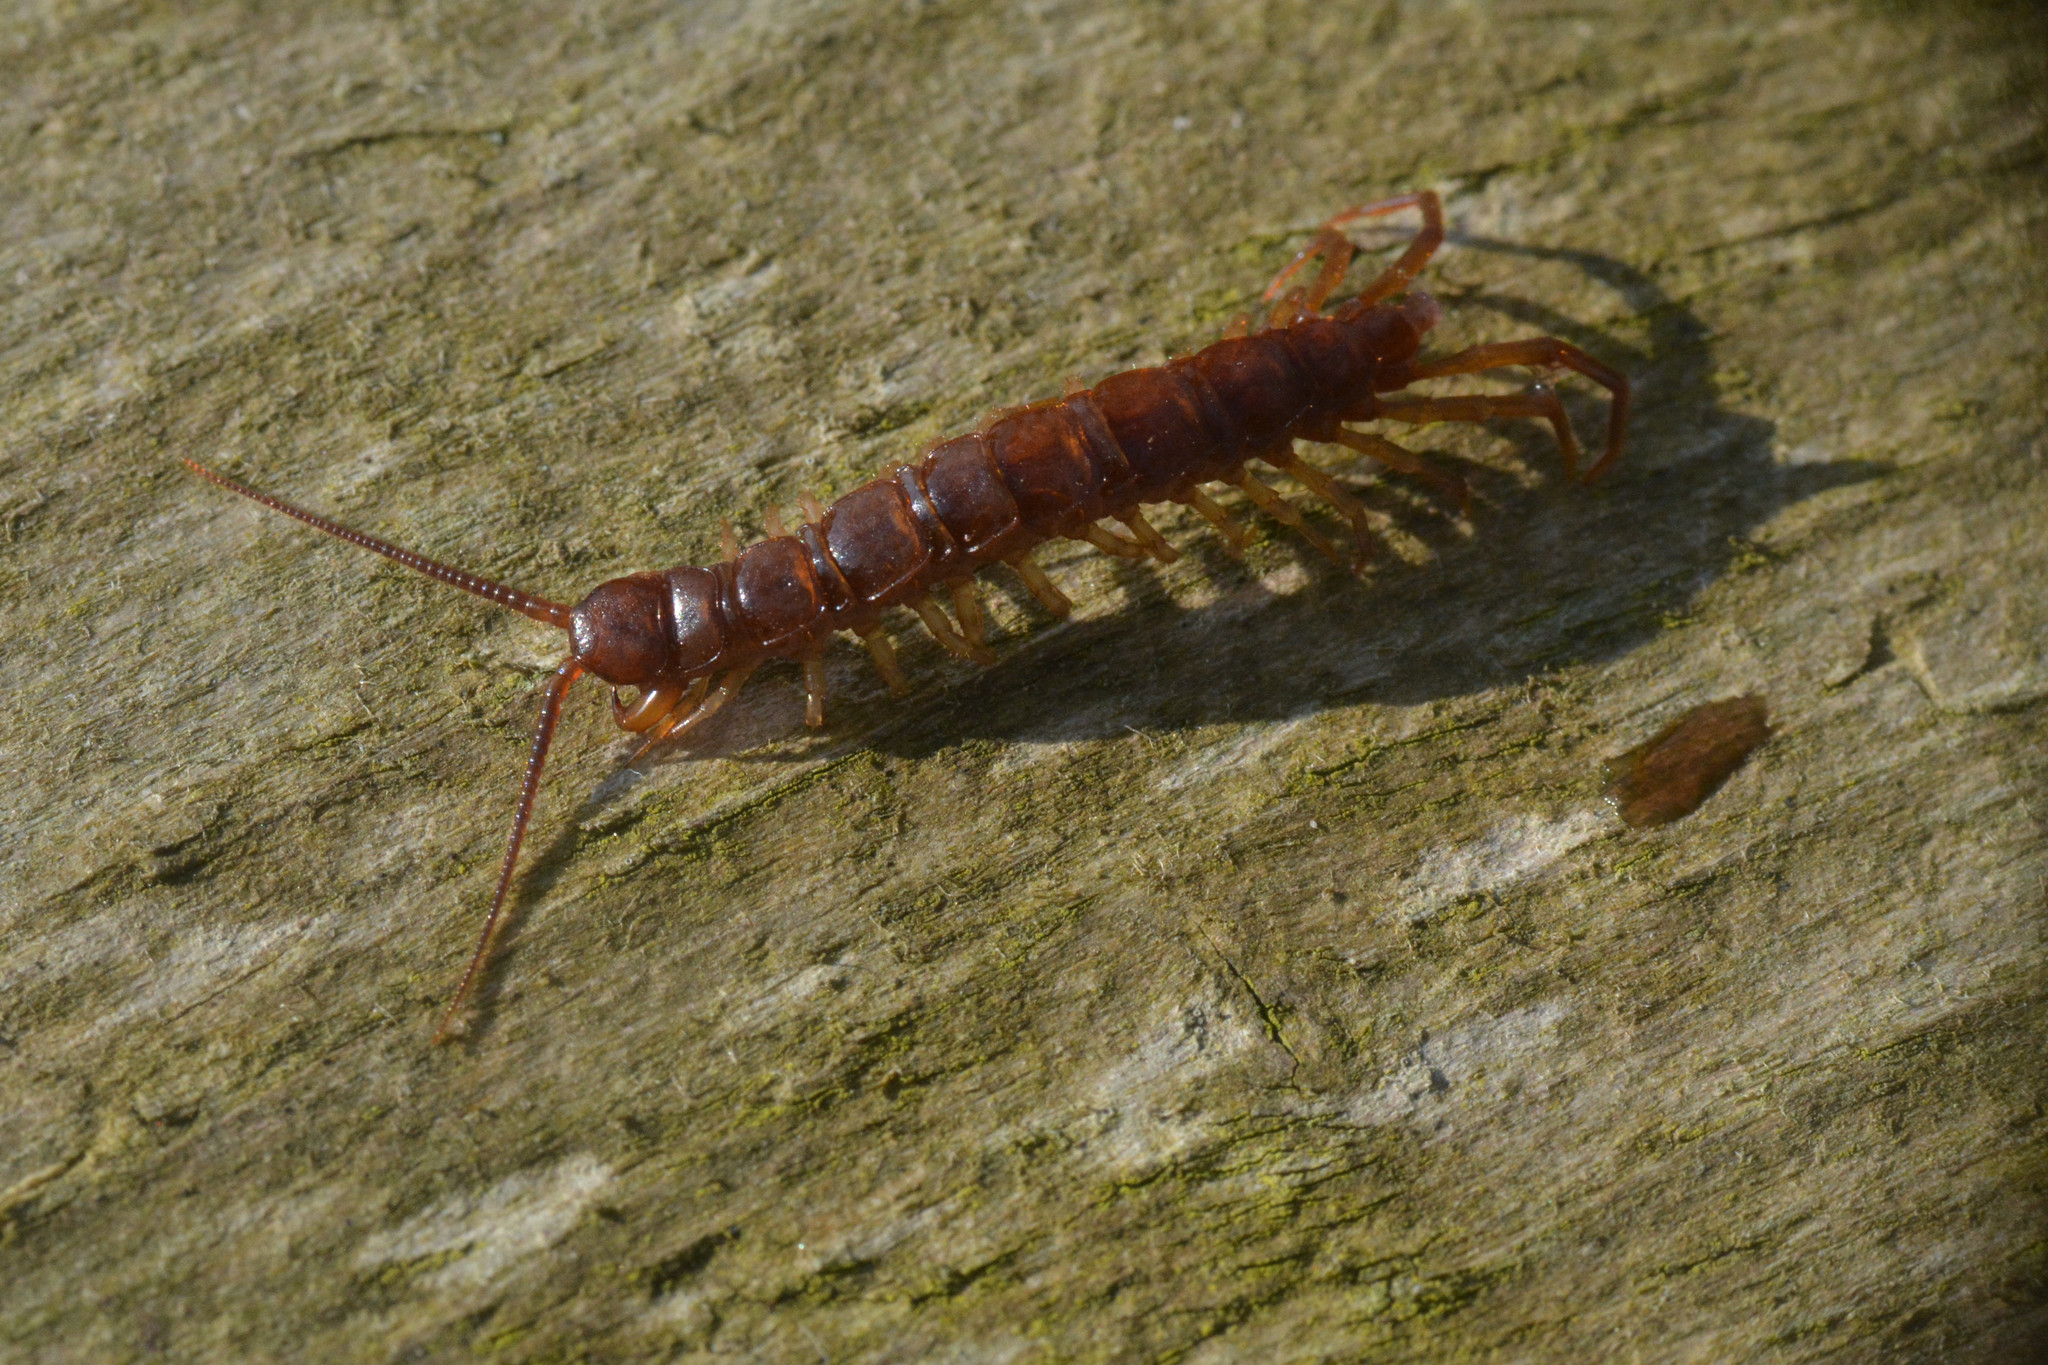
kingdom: Animalia
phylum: Arthropoda
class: Chilopoda
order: Lithobiomorpha
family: Lithobiidae
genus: Lithobius
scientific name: Lithobius forficatus
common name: Centipede
